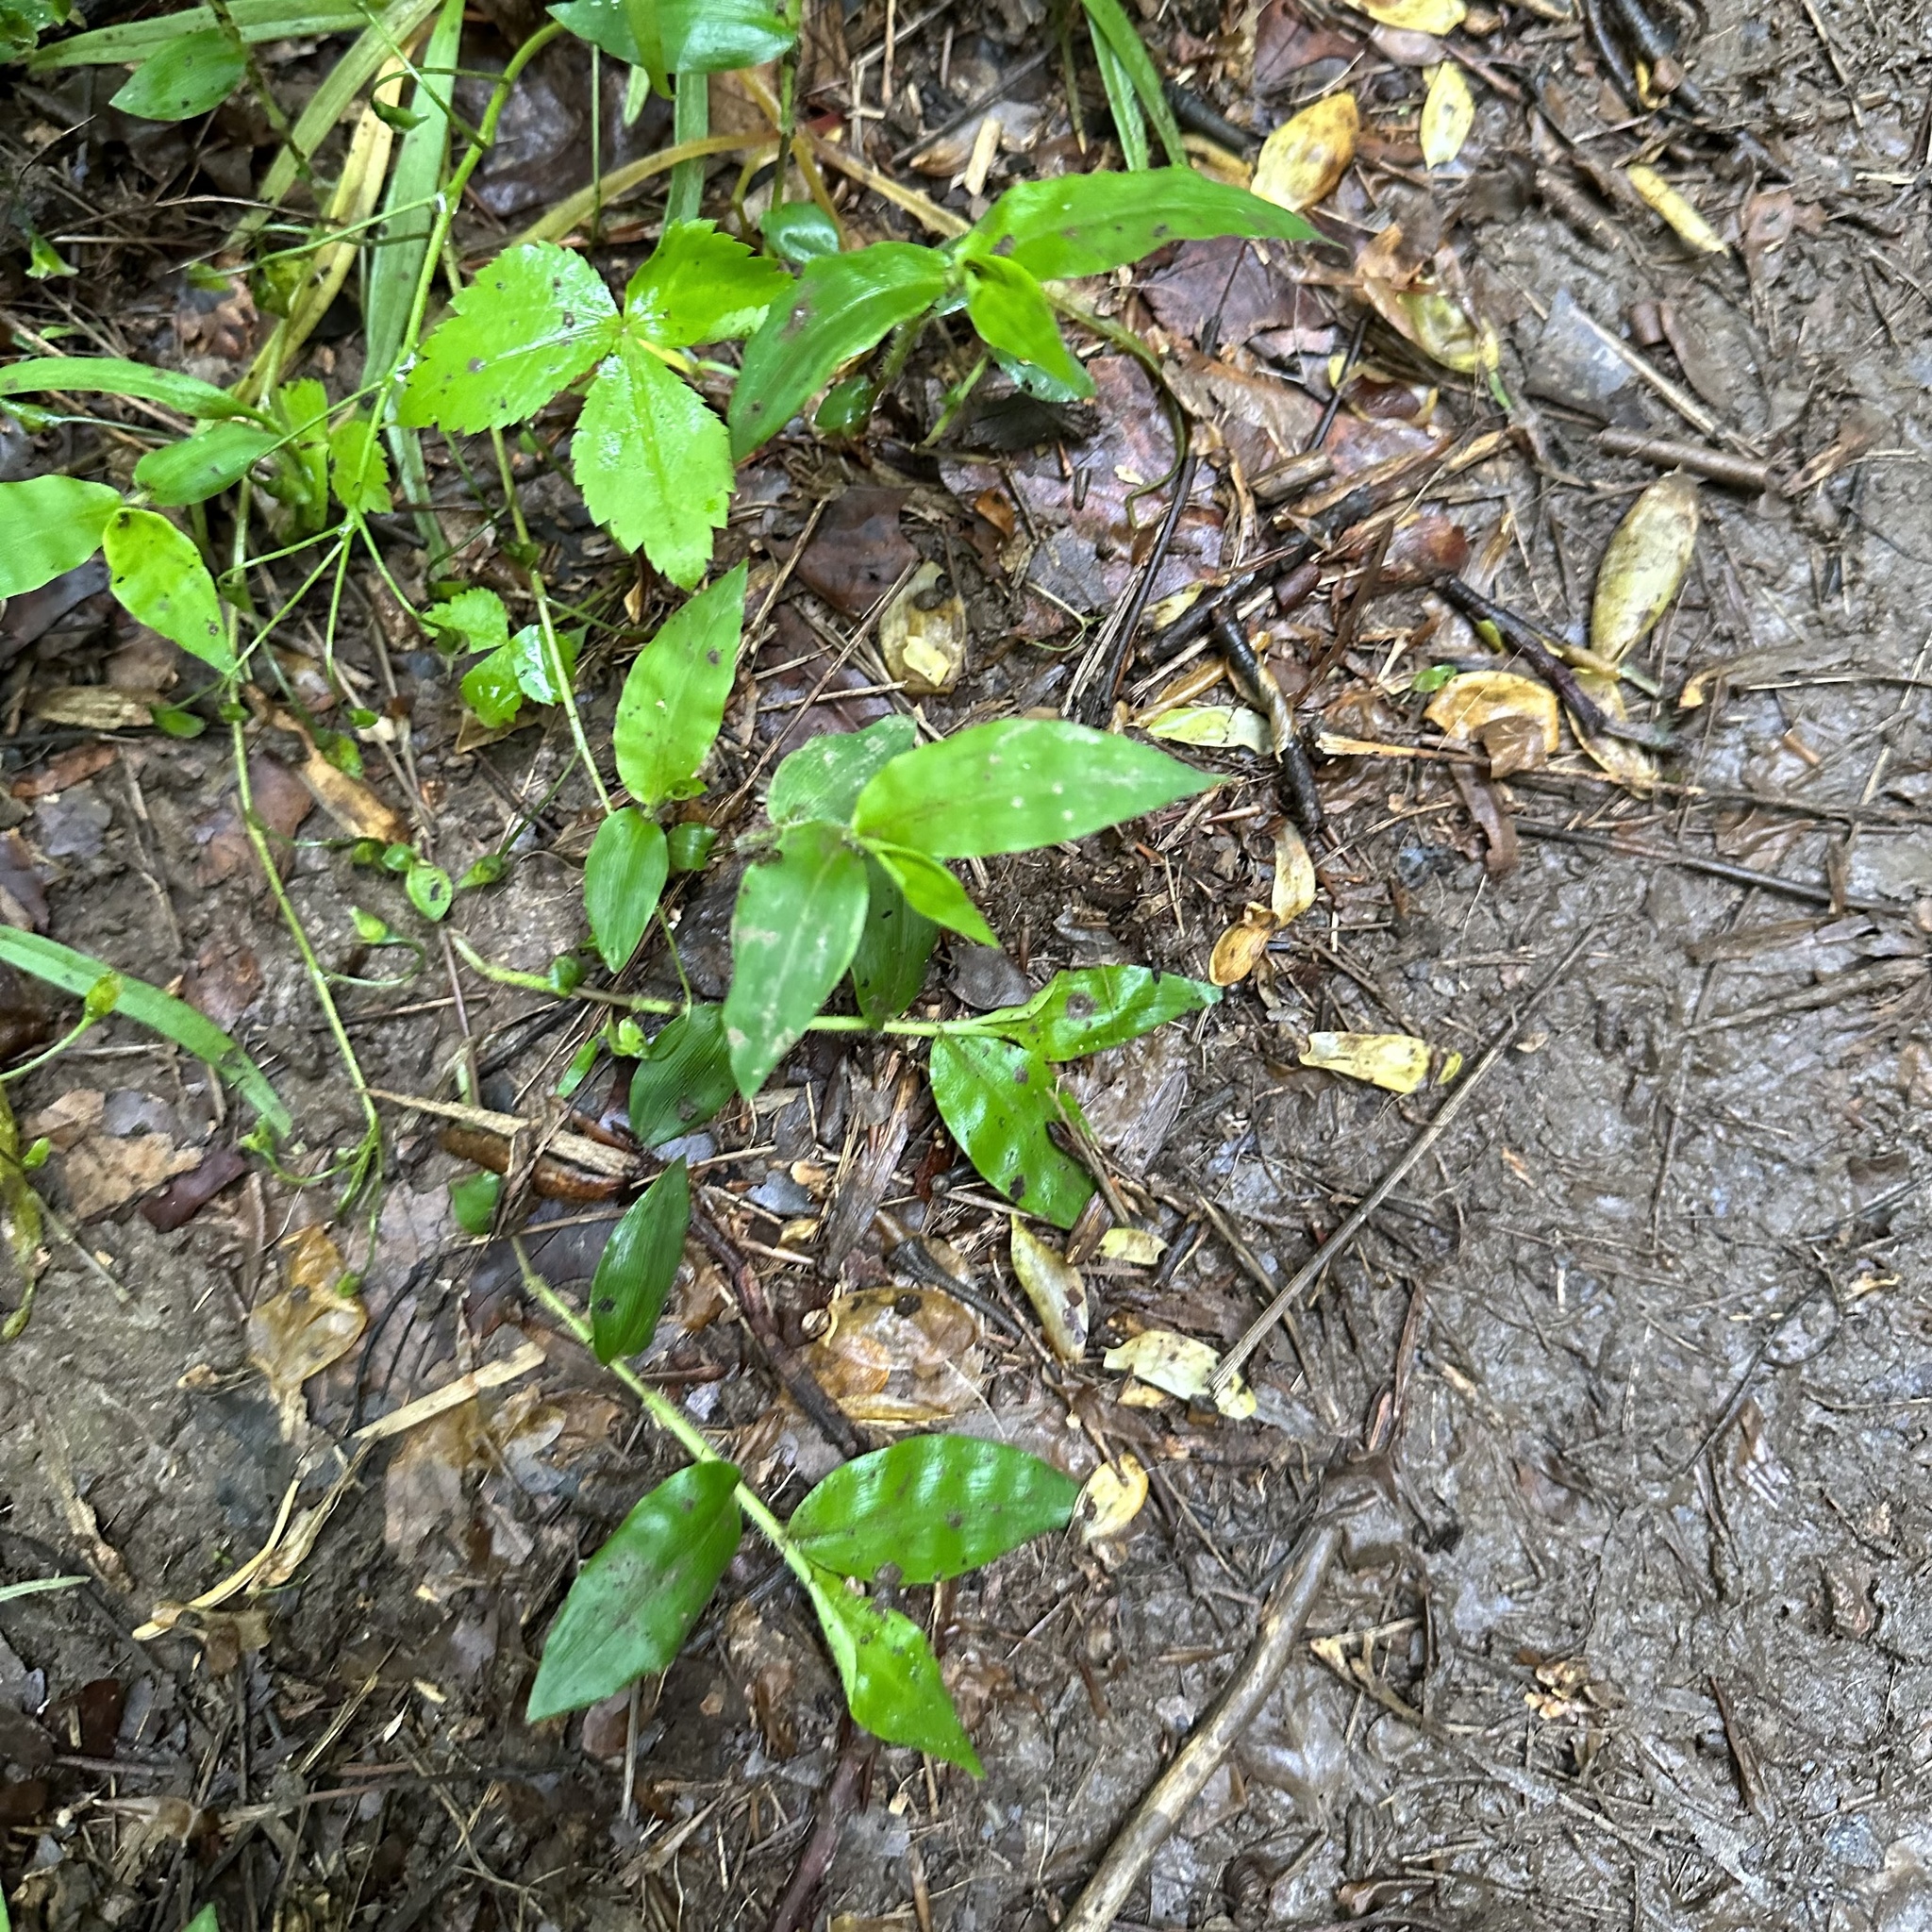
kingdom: Plantae
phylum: Tracheophyta
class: Liliopsida
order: Poales
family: Poaceae
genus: Oplismenus
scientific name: Oplismenus undulatifolius
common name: Wavyleaf basketgrass
